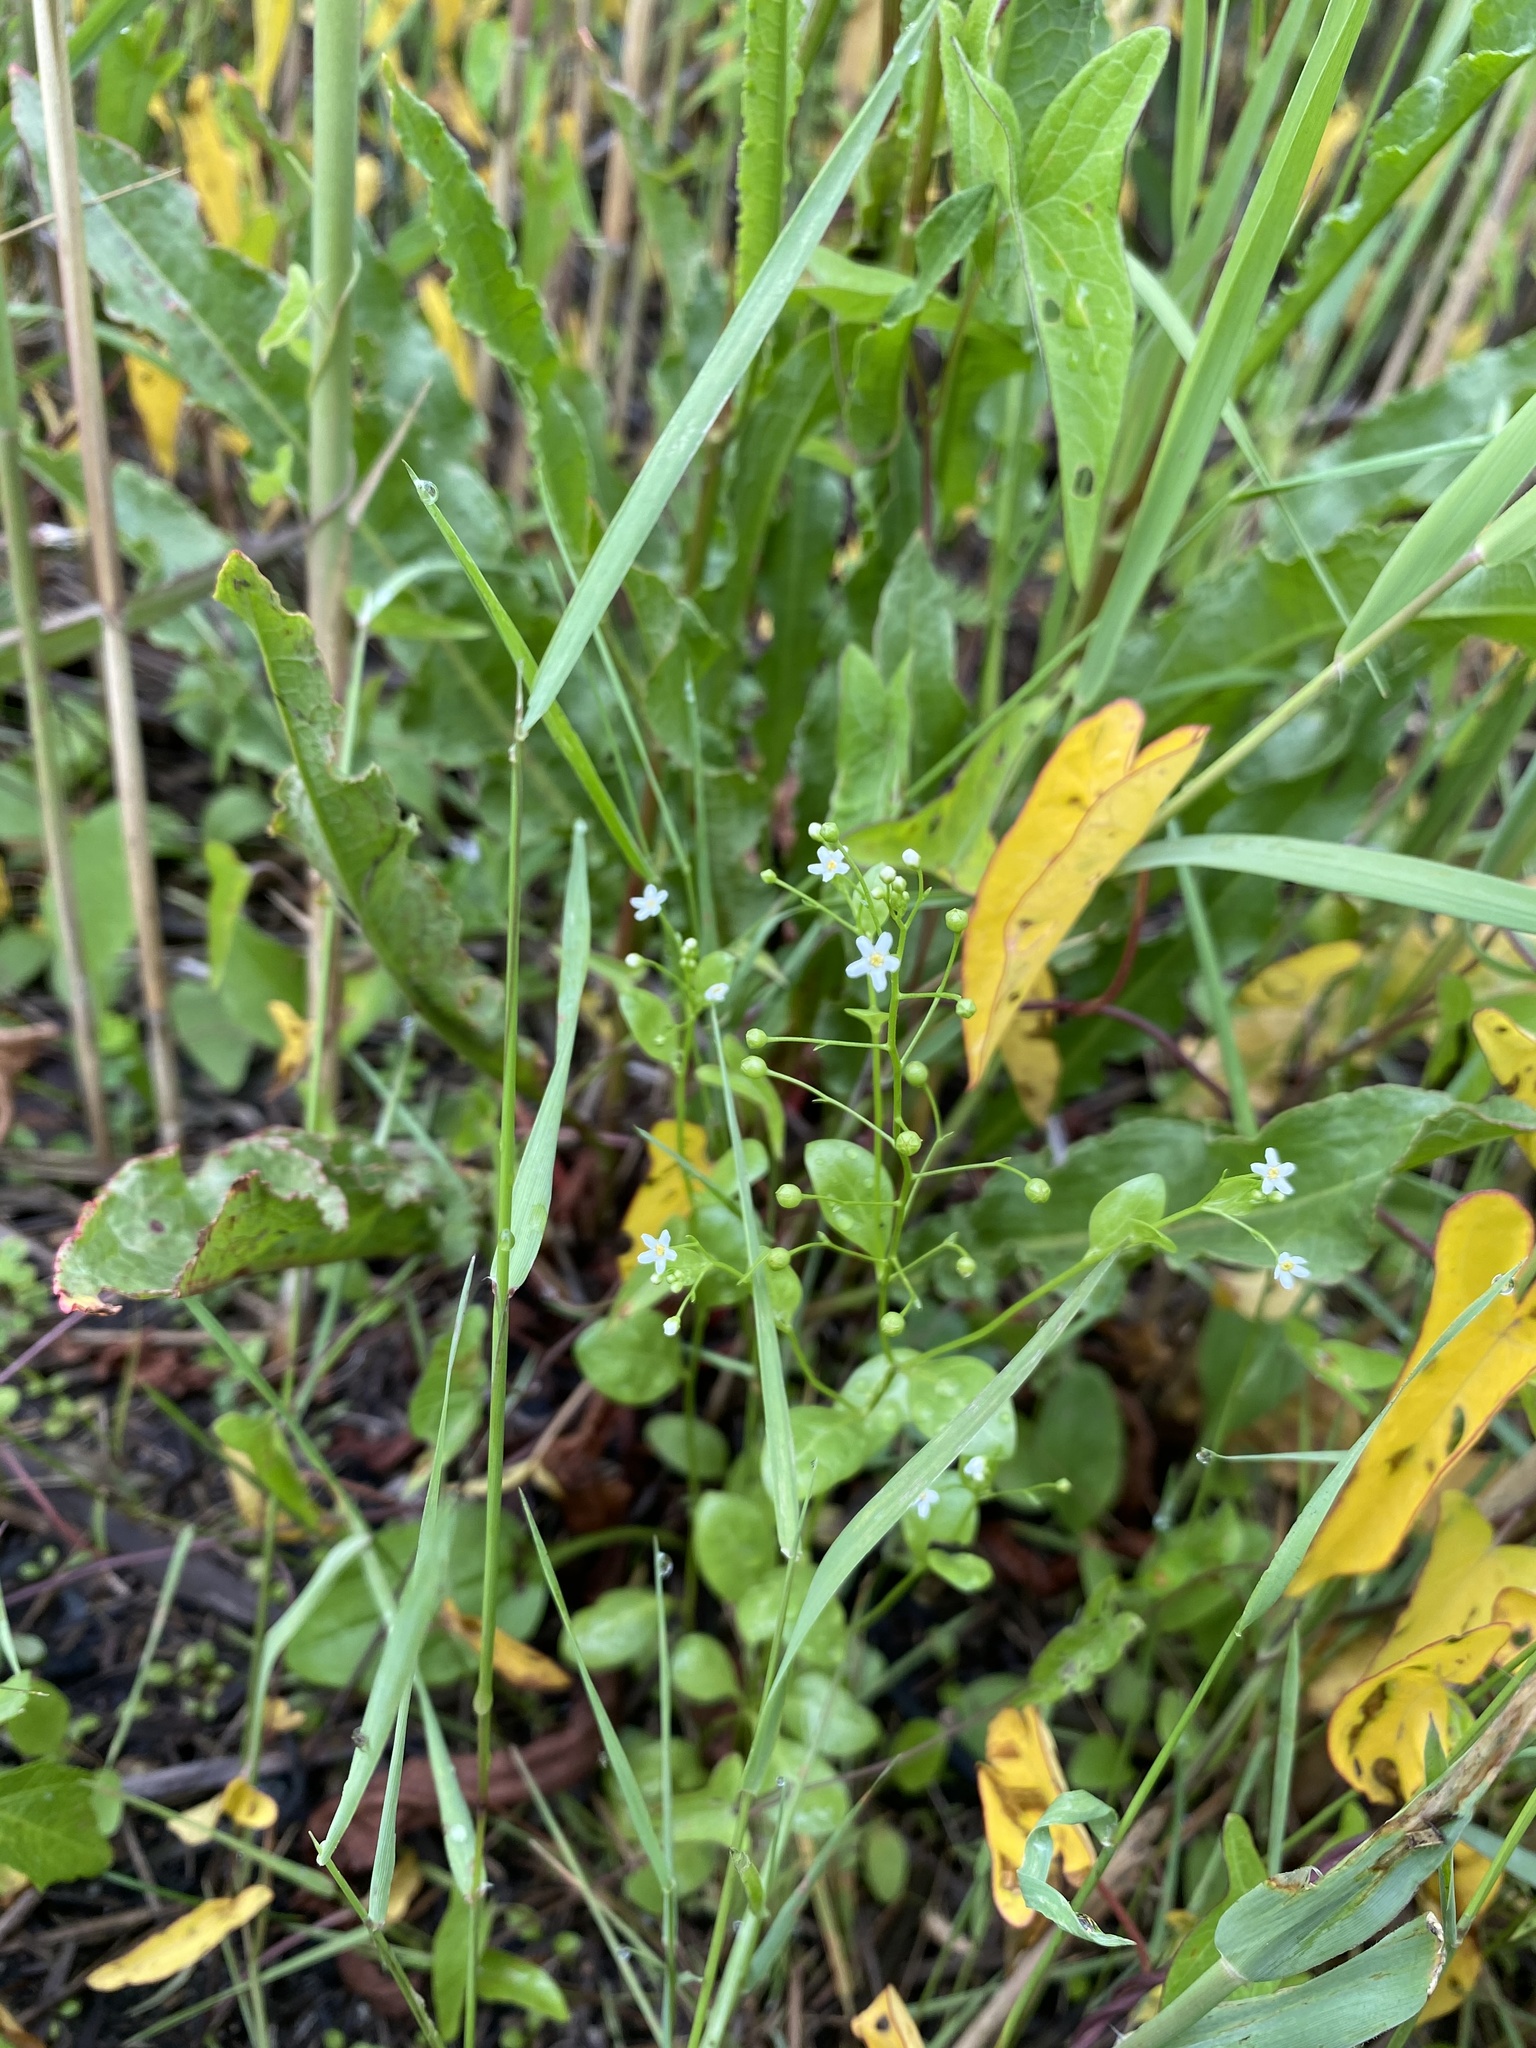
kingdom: Plantae
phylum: Tracheophyta
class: Magnoliopsida
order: Ericales
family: Primulaceae
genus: Samolus
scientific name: Samolus parviflorus
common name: False water pimpernel
